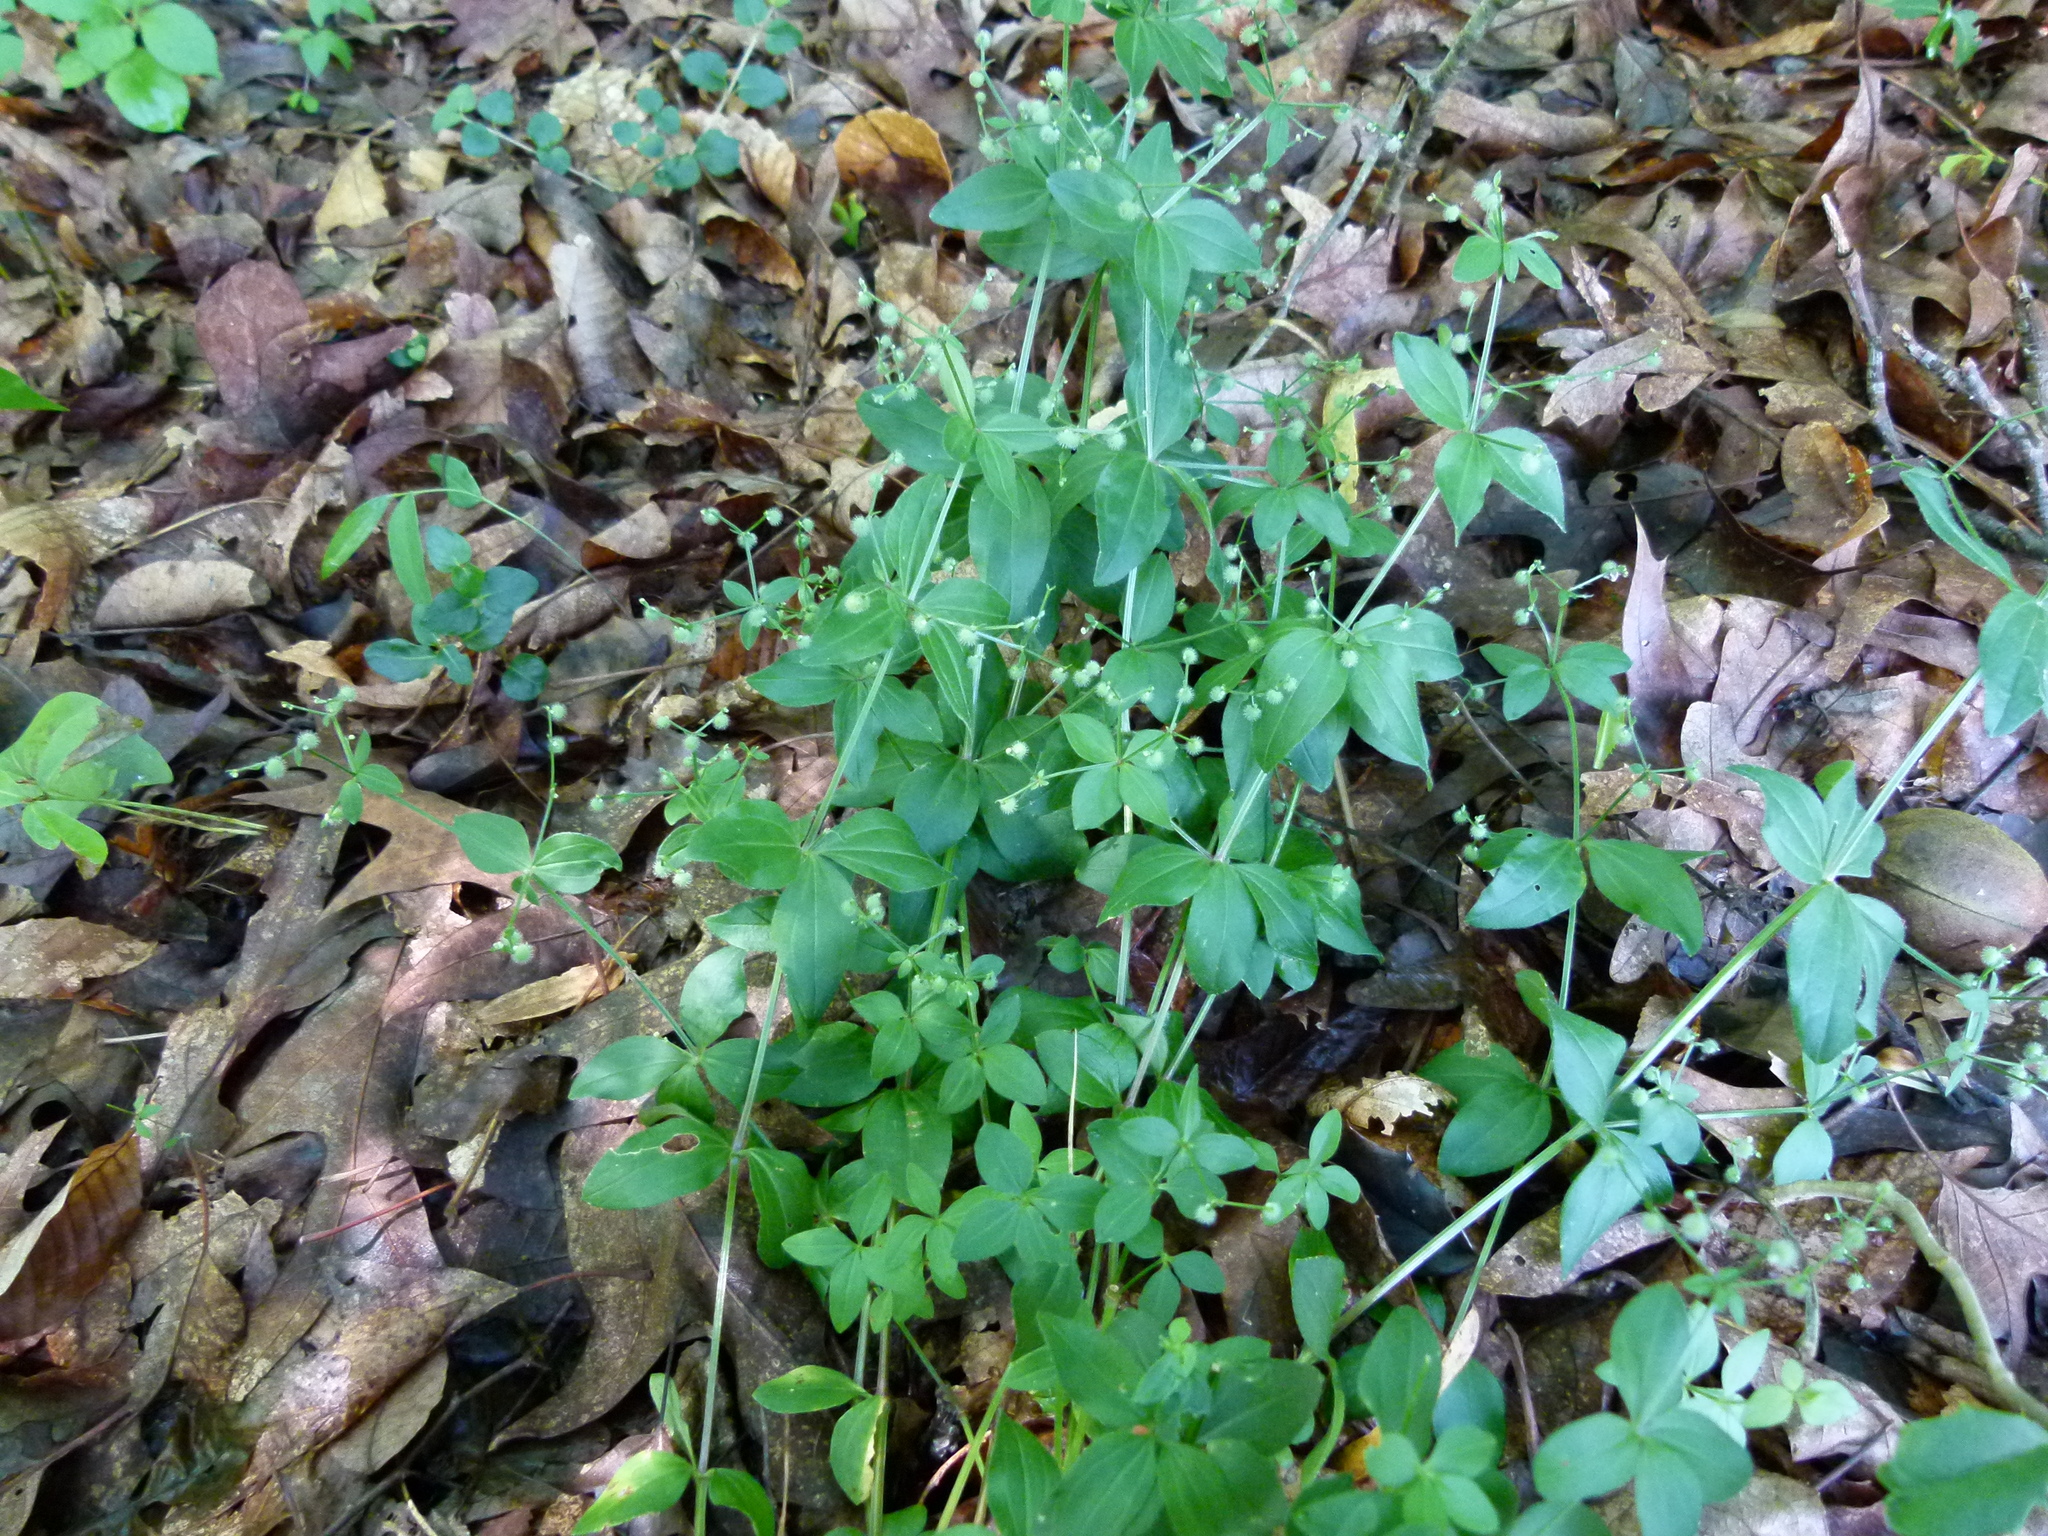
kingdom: Plantae
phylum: Tracheophyta
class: Magnoliopsida
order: Gentianales
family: Rubiaceae
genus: Galium
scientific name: Galium circaezans
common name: Forest bedstraw
